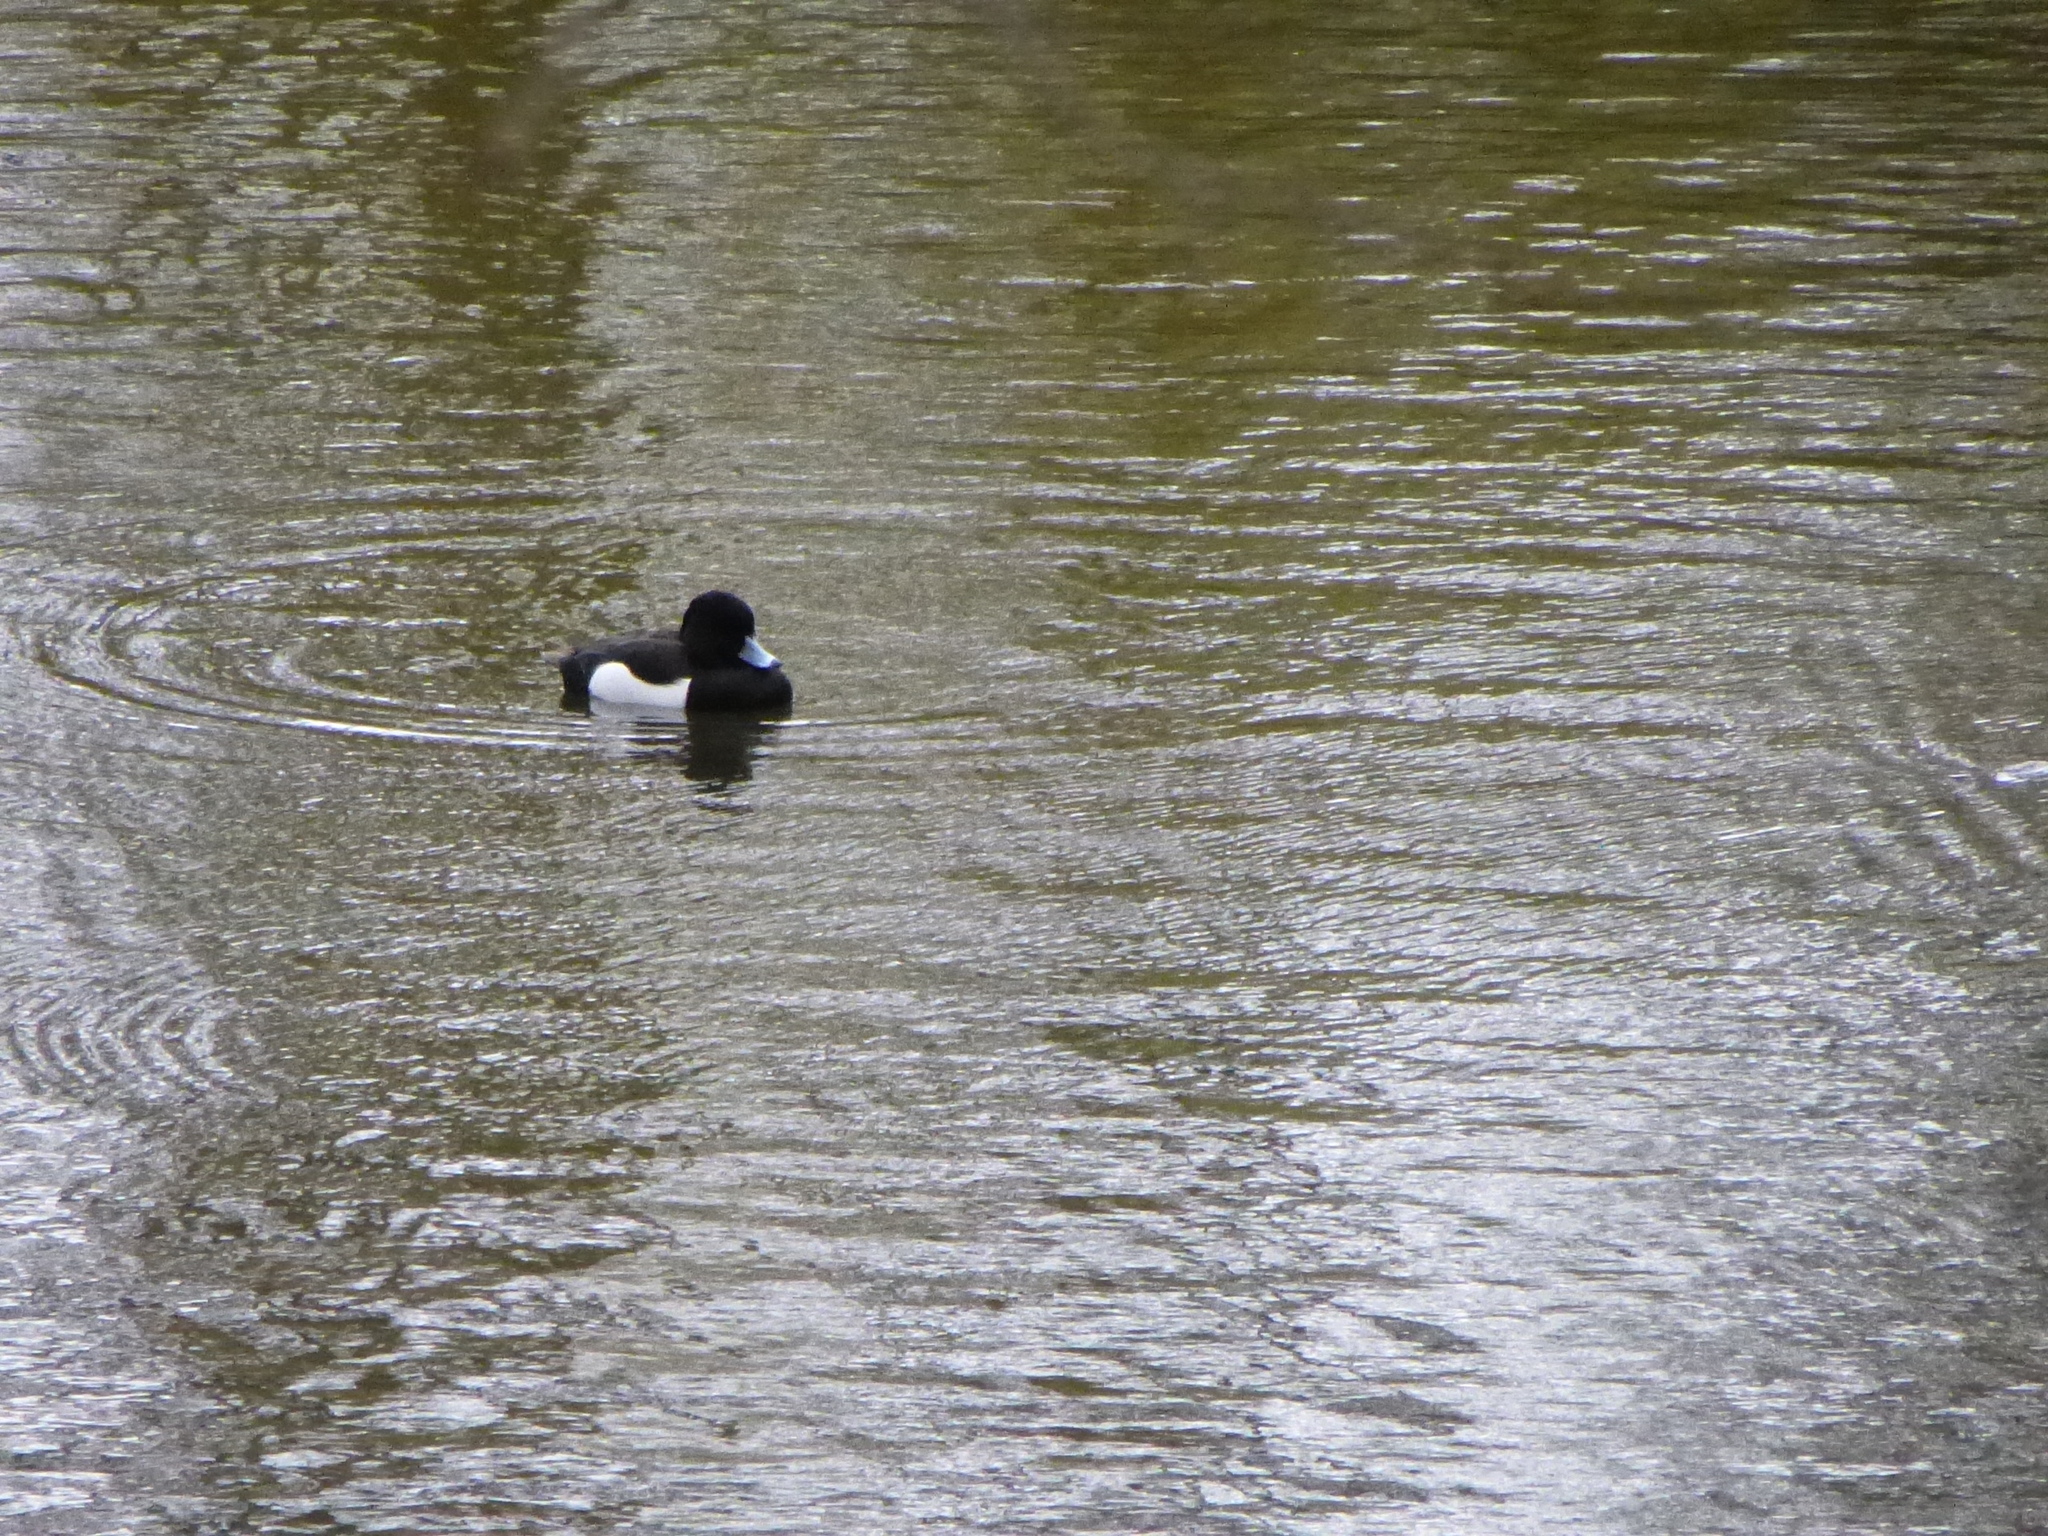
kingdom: Animalia
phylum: Chordata
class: Aves
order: Anseriformes
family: Anatidae
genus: Aythya
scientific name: Aythya fuligula
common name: Tufted duck
